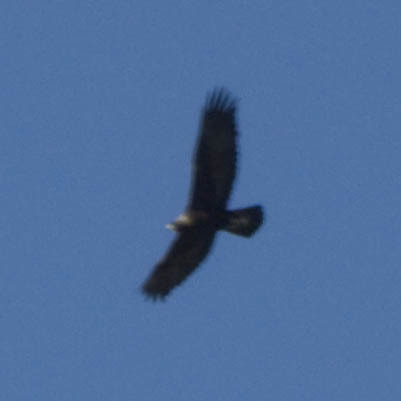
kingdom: Animalia
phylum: Chordata
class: Aves
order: Accipitriformes
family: Accipitridae
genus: Aquila
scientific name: Aquila chrysaetos
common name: Golden eagle
